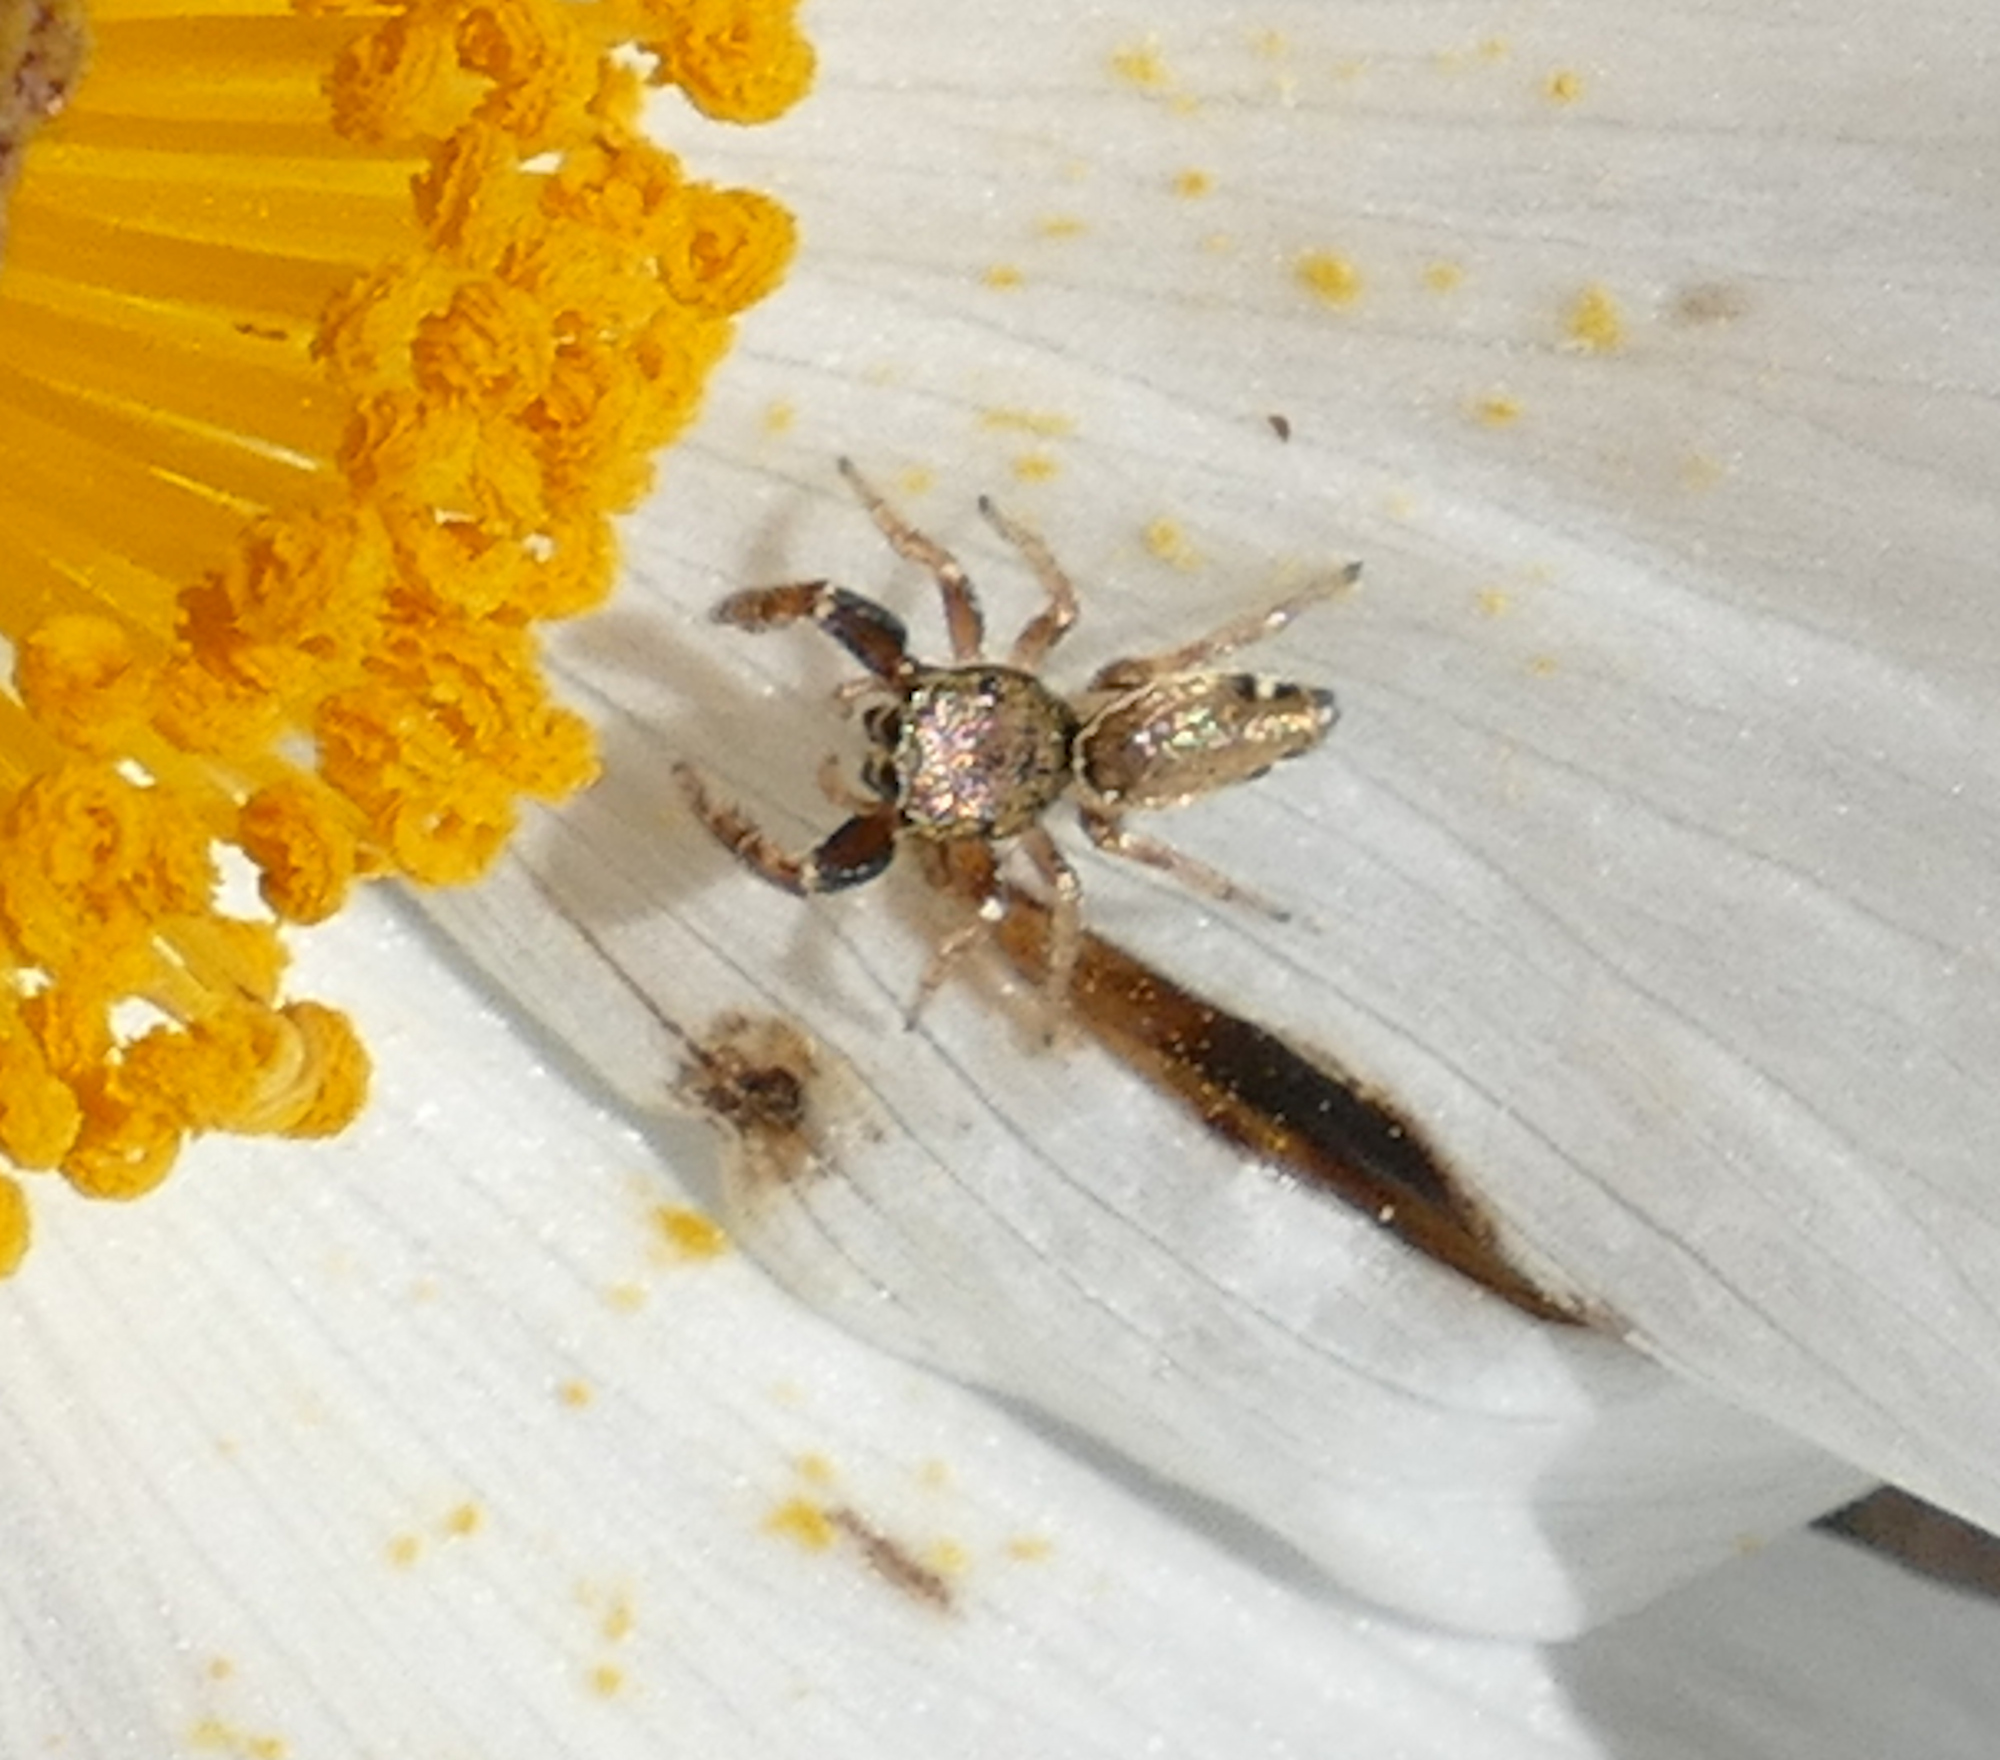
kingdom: Animalia
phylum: Arthropoda
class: Arachnida
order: Araneae
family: Salticidae
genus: Sassacus
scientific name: Sassacus vitis
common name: Jumping spiders
